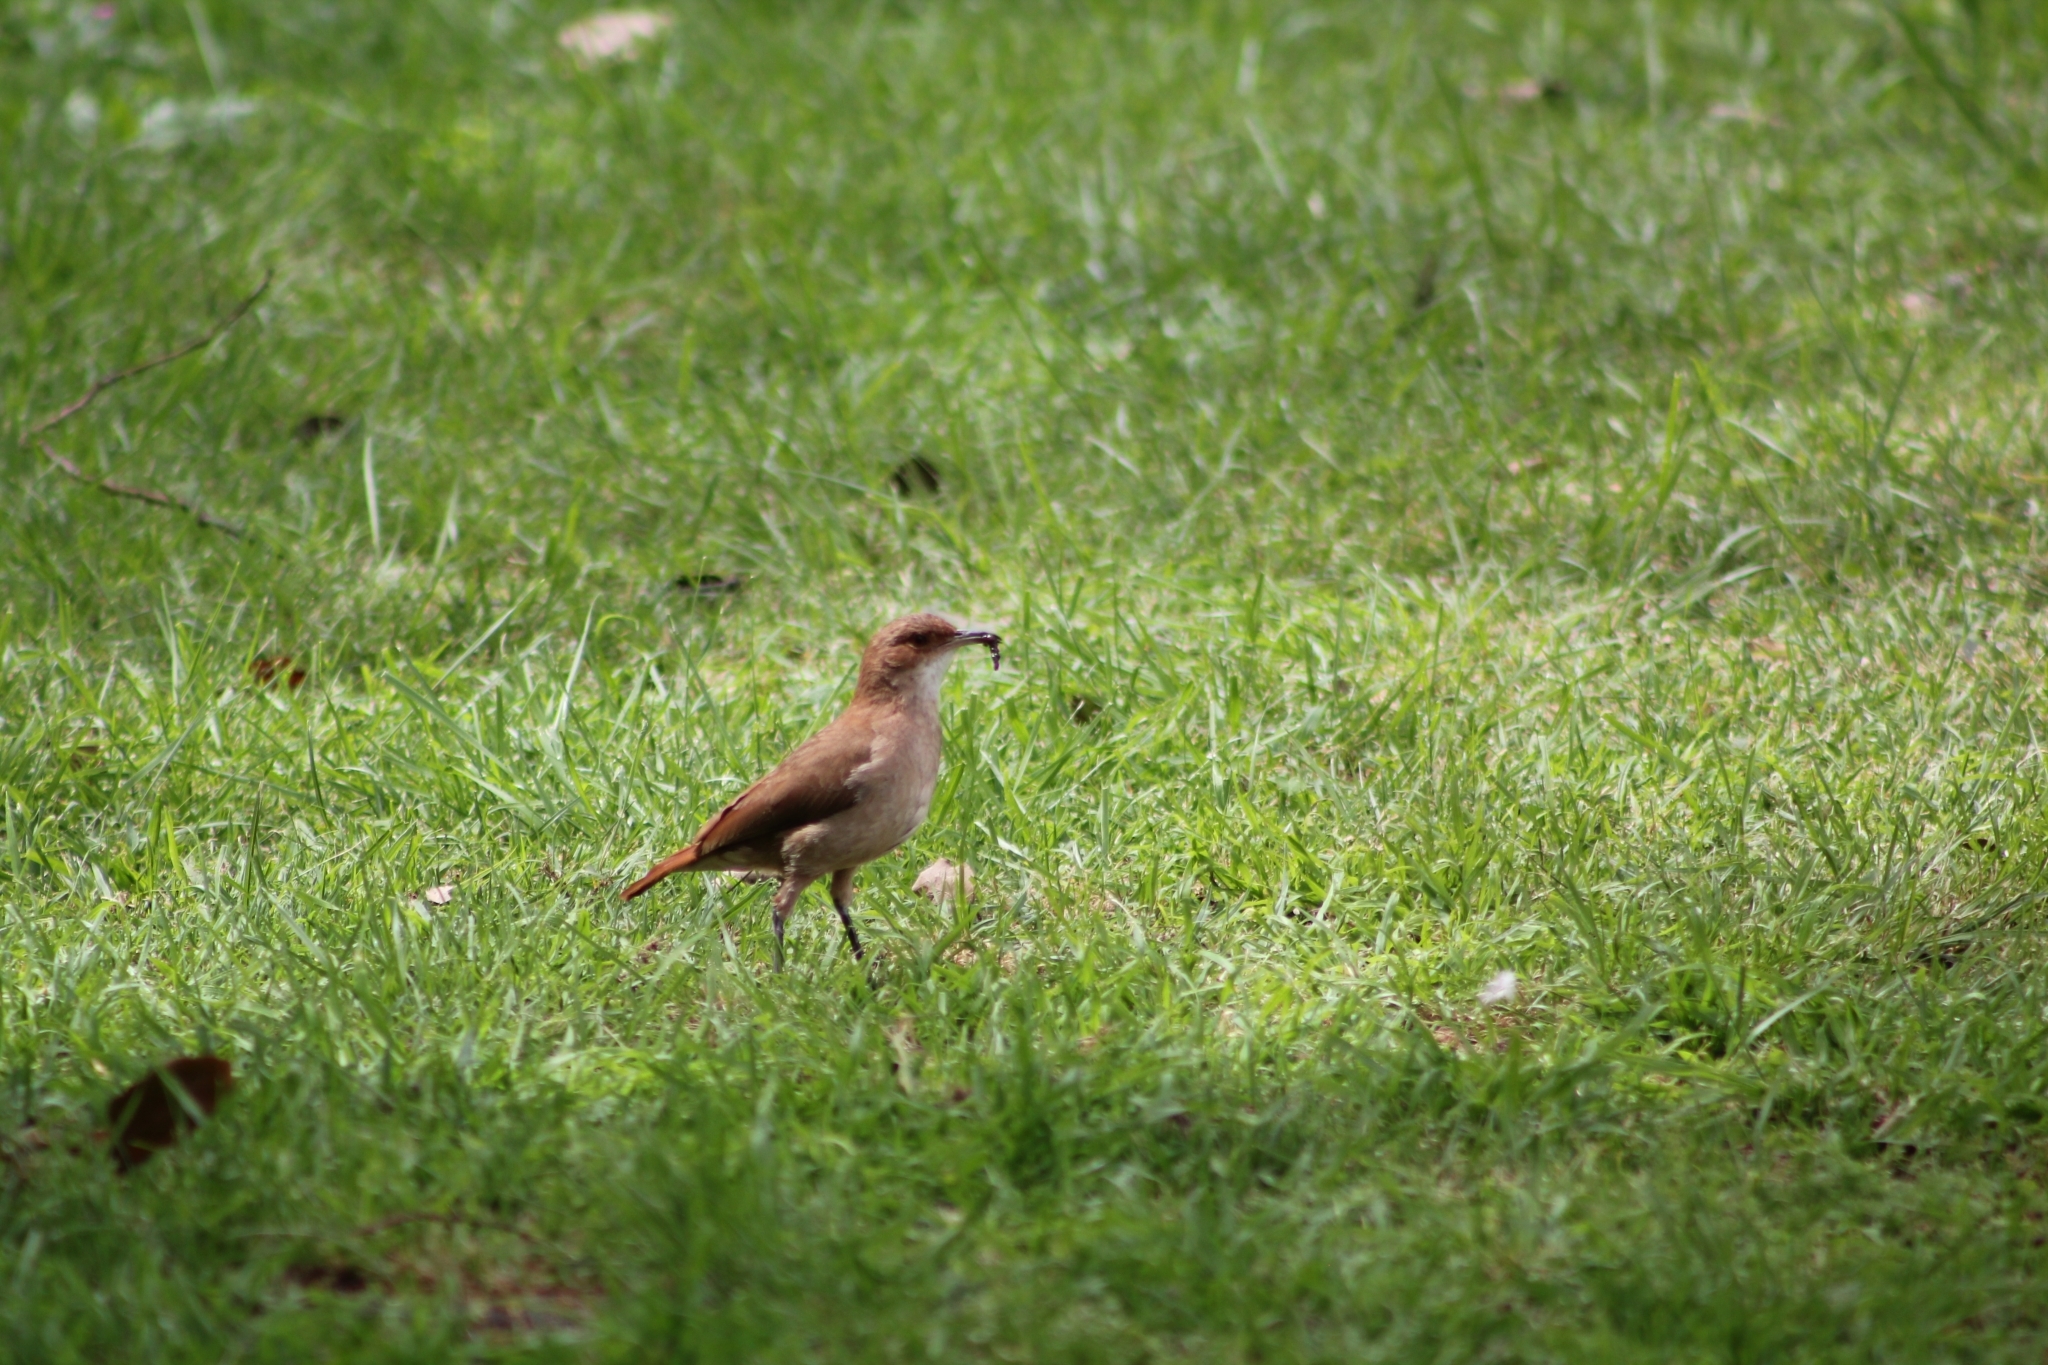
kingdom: Animalia
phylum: Chordata
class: Aves
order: Passeriformes
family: Furnariidae
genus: Furnarius
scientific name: Furnarius rufus
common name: Rufous hornero
